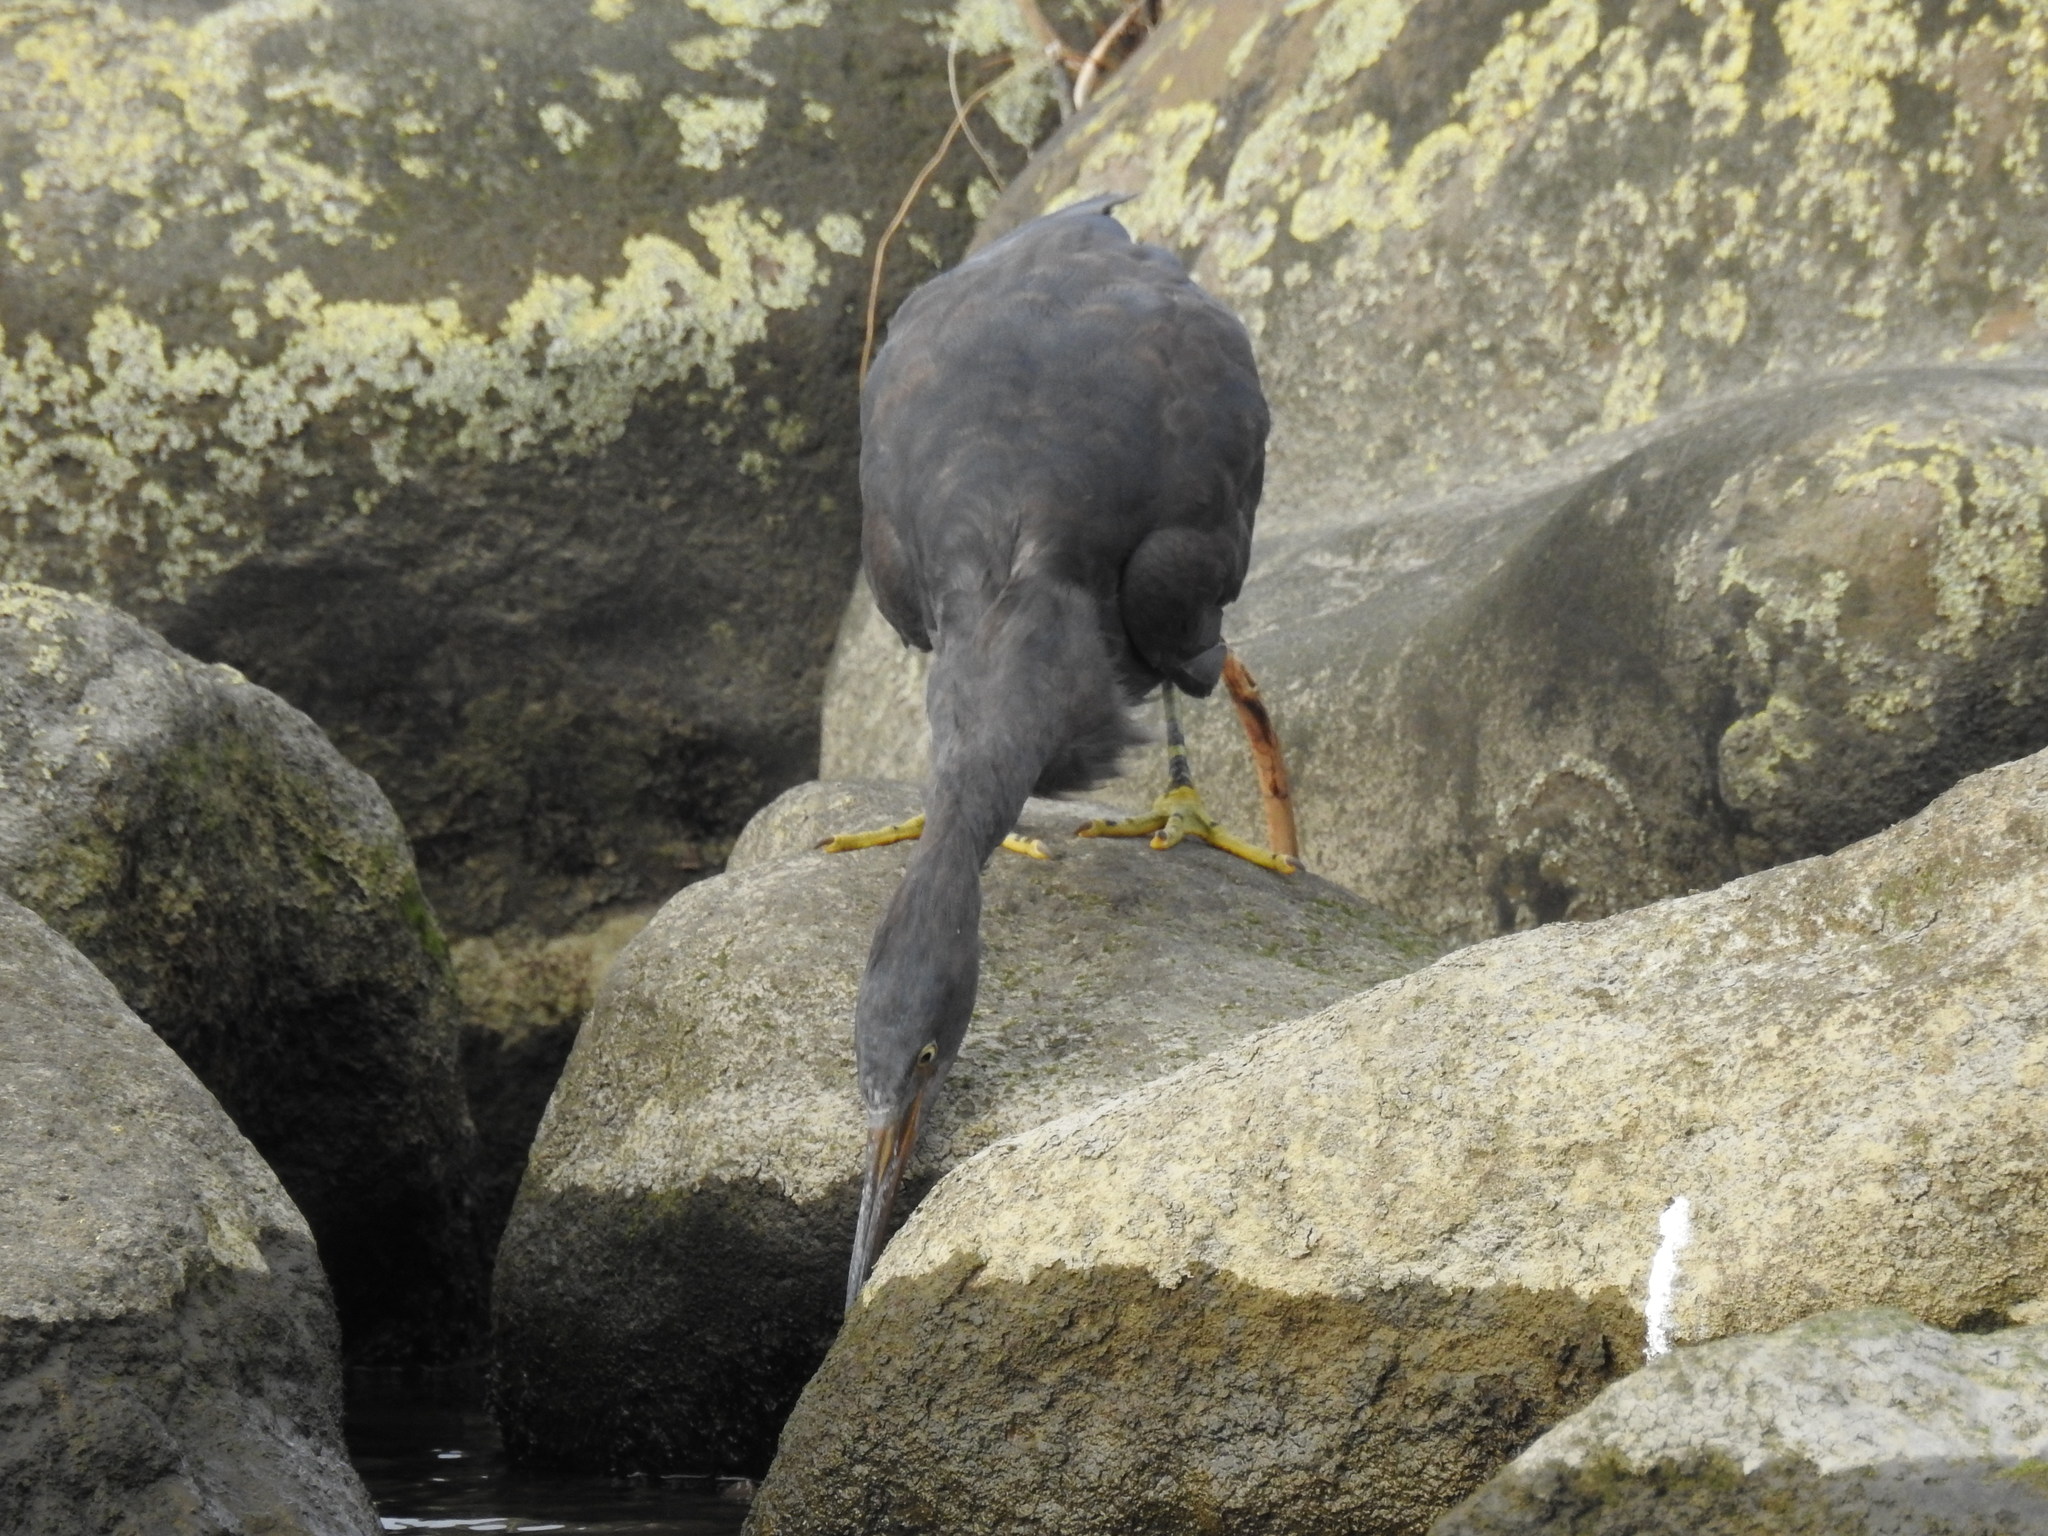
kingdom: Animalia
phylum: Chordata
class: Aves
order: Pelecaniformes
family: Ardeidae
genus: Egretta
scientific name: Egretta sacra
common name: Pacific reef heron
